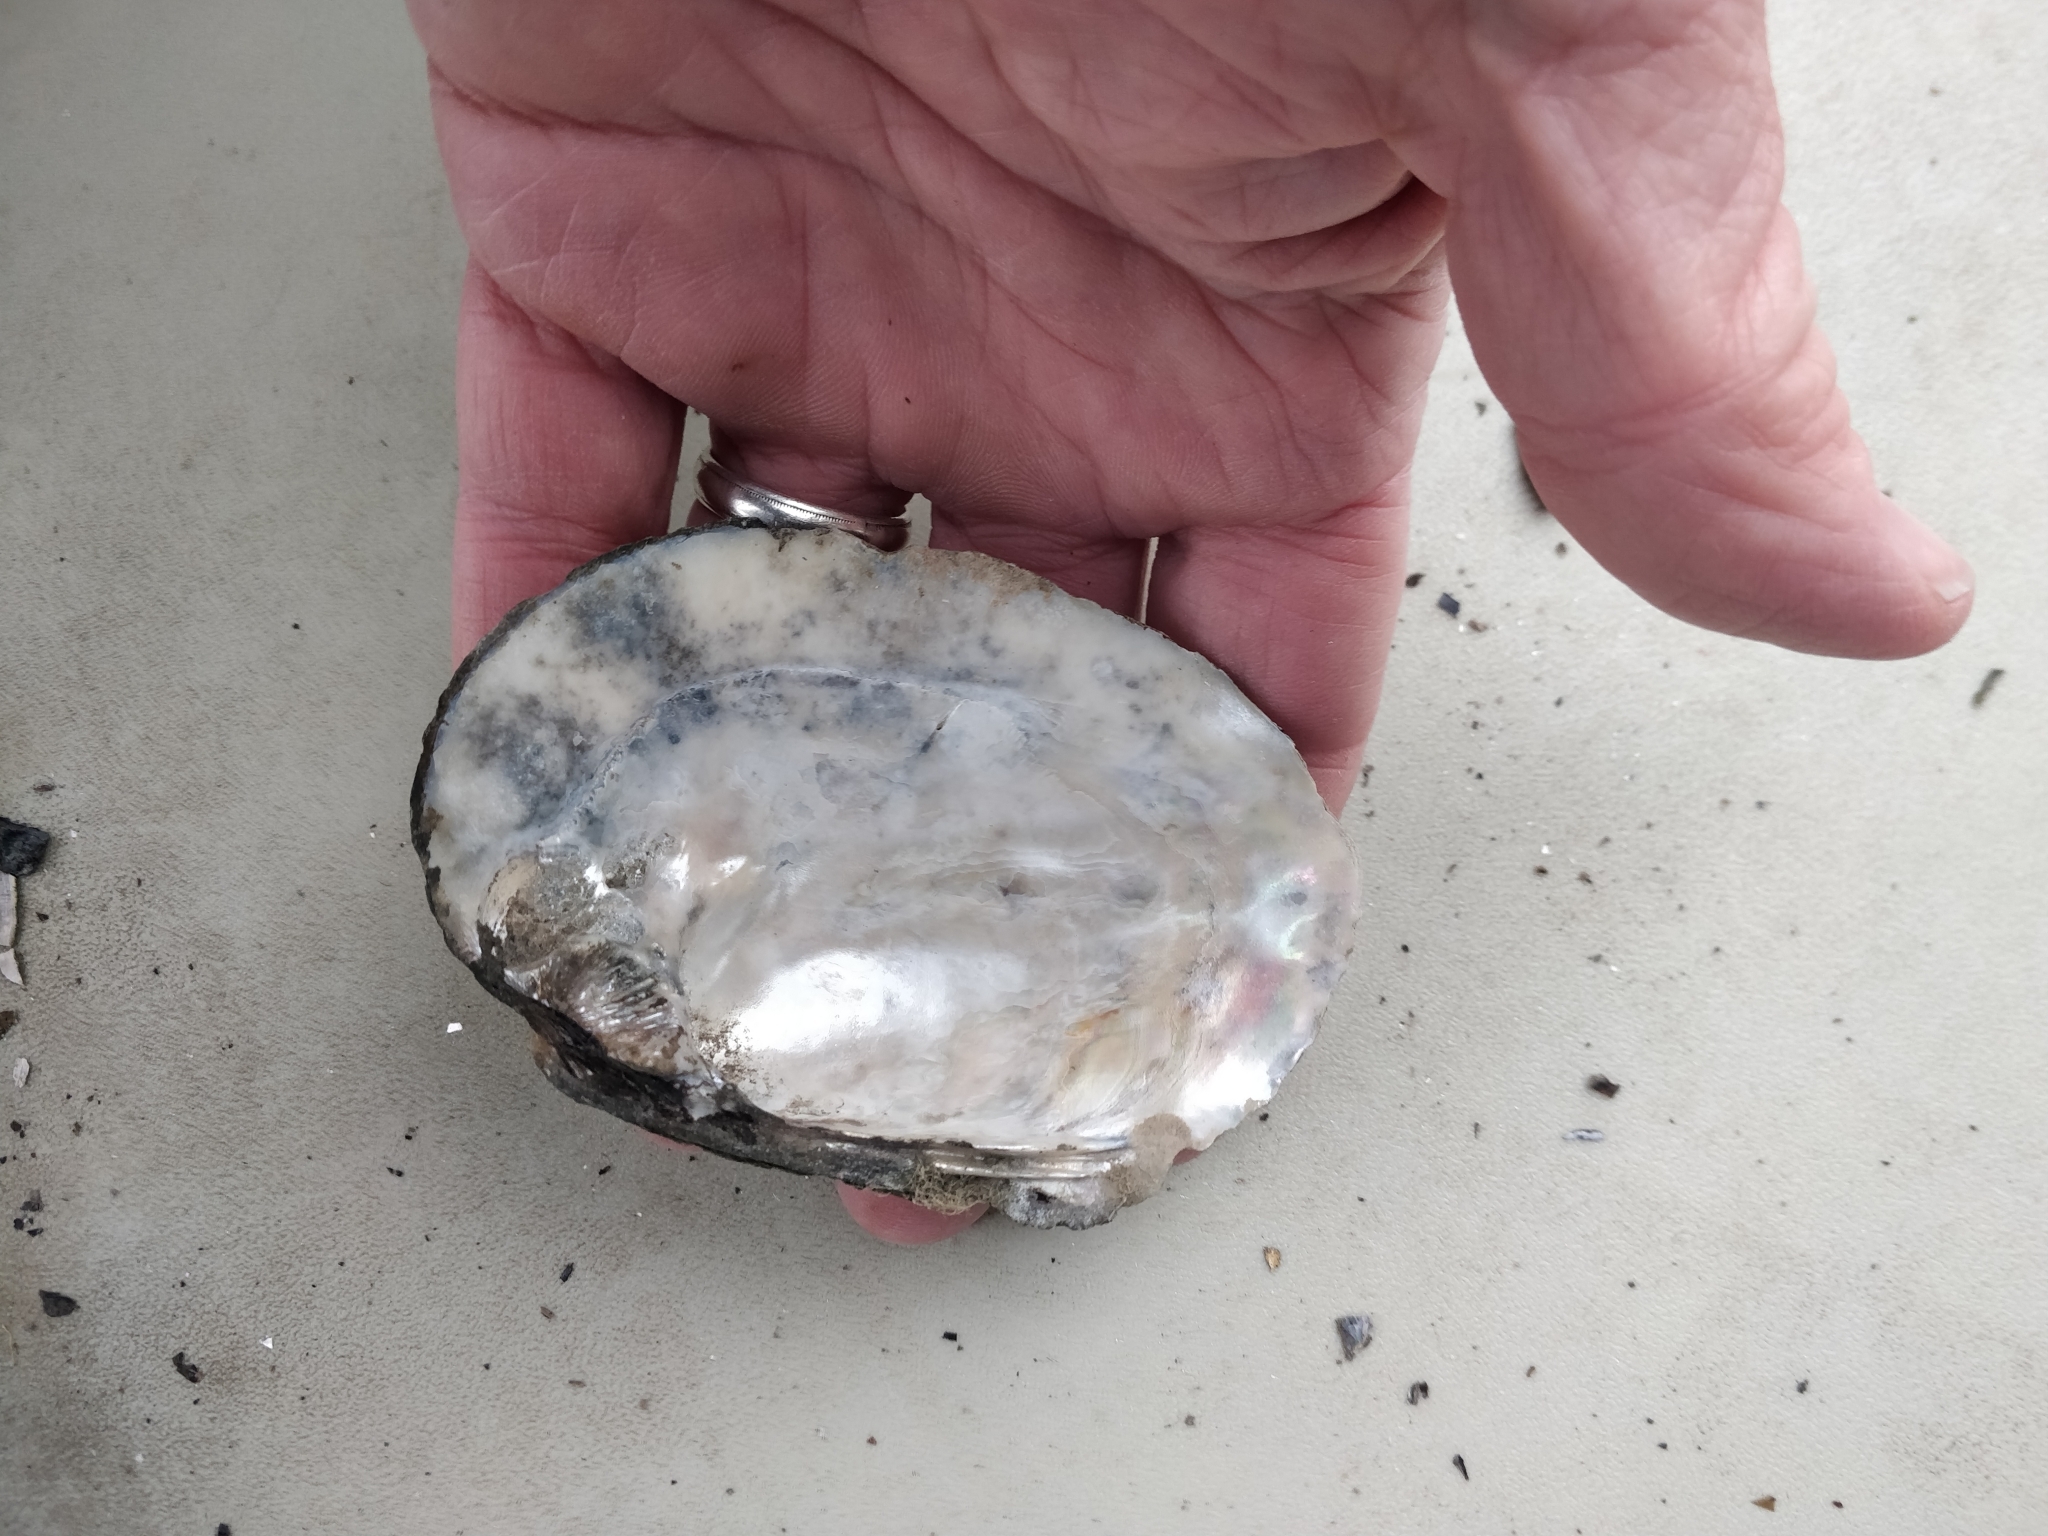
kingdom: Animalia
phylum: Mollusca
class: Bivalvia
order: Unionida
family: Unionidae
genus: Amblema
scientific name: Amblema plicata
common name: Threeridge
